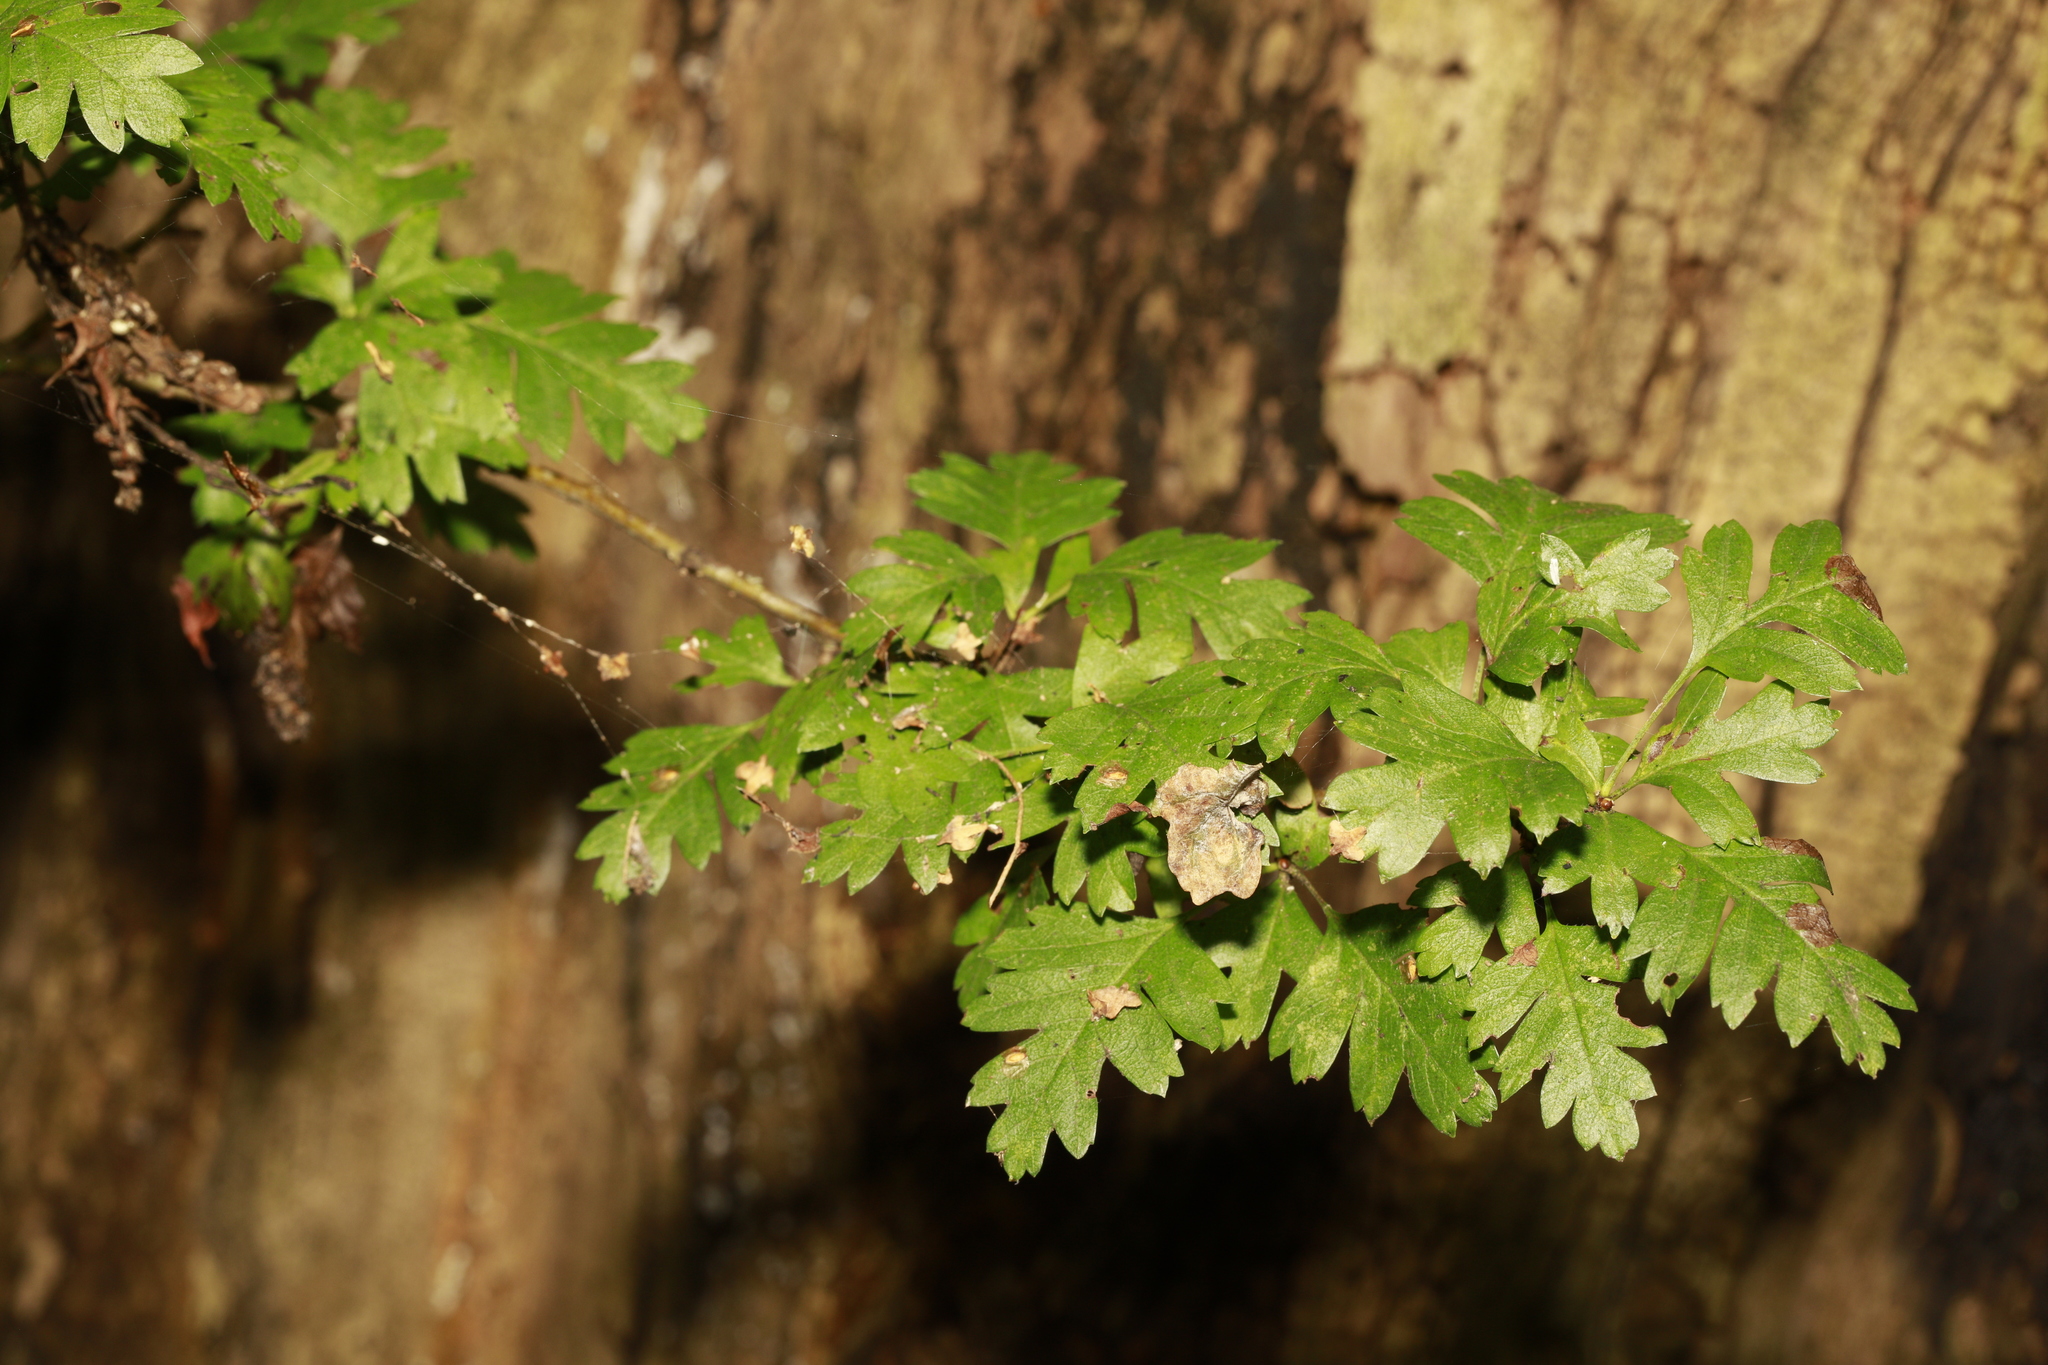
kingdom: Plantae
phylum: Tracheophyta
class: Magnoliopsida
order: Rosales
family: Rosaceae
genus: Crataegus
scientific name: Crataegus monogyna
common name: Hawthorn
